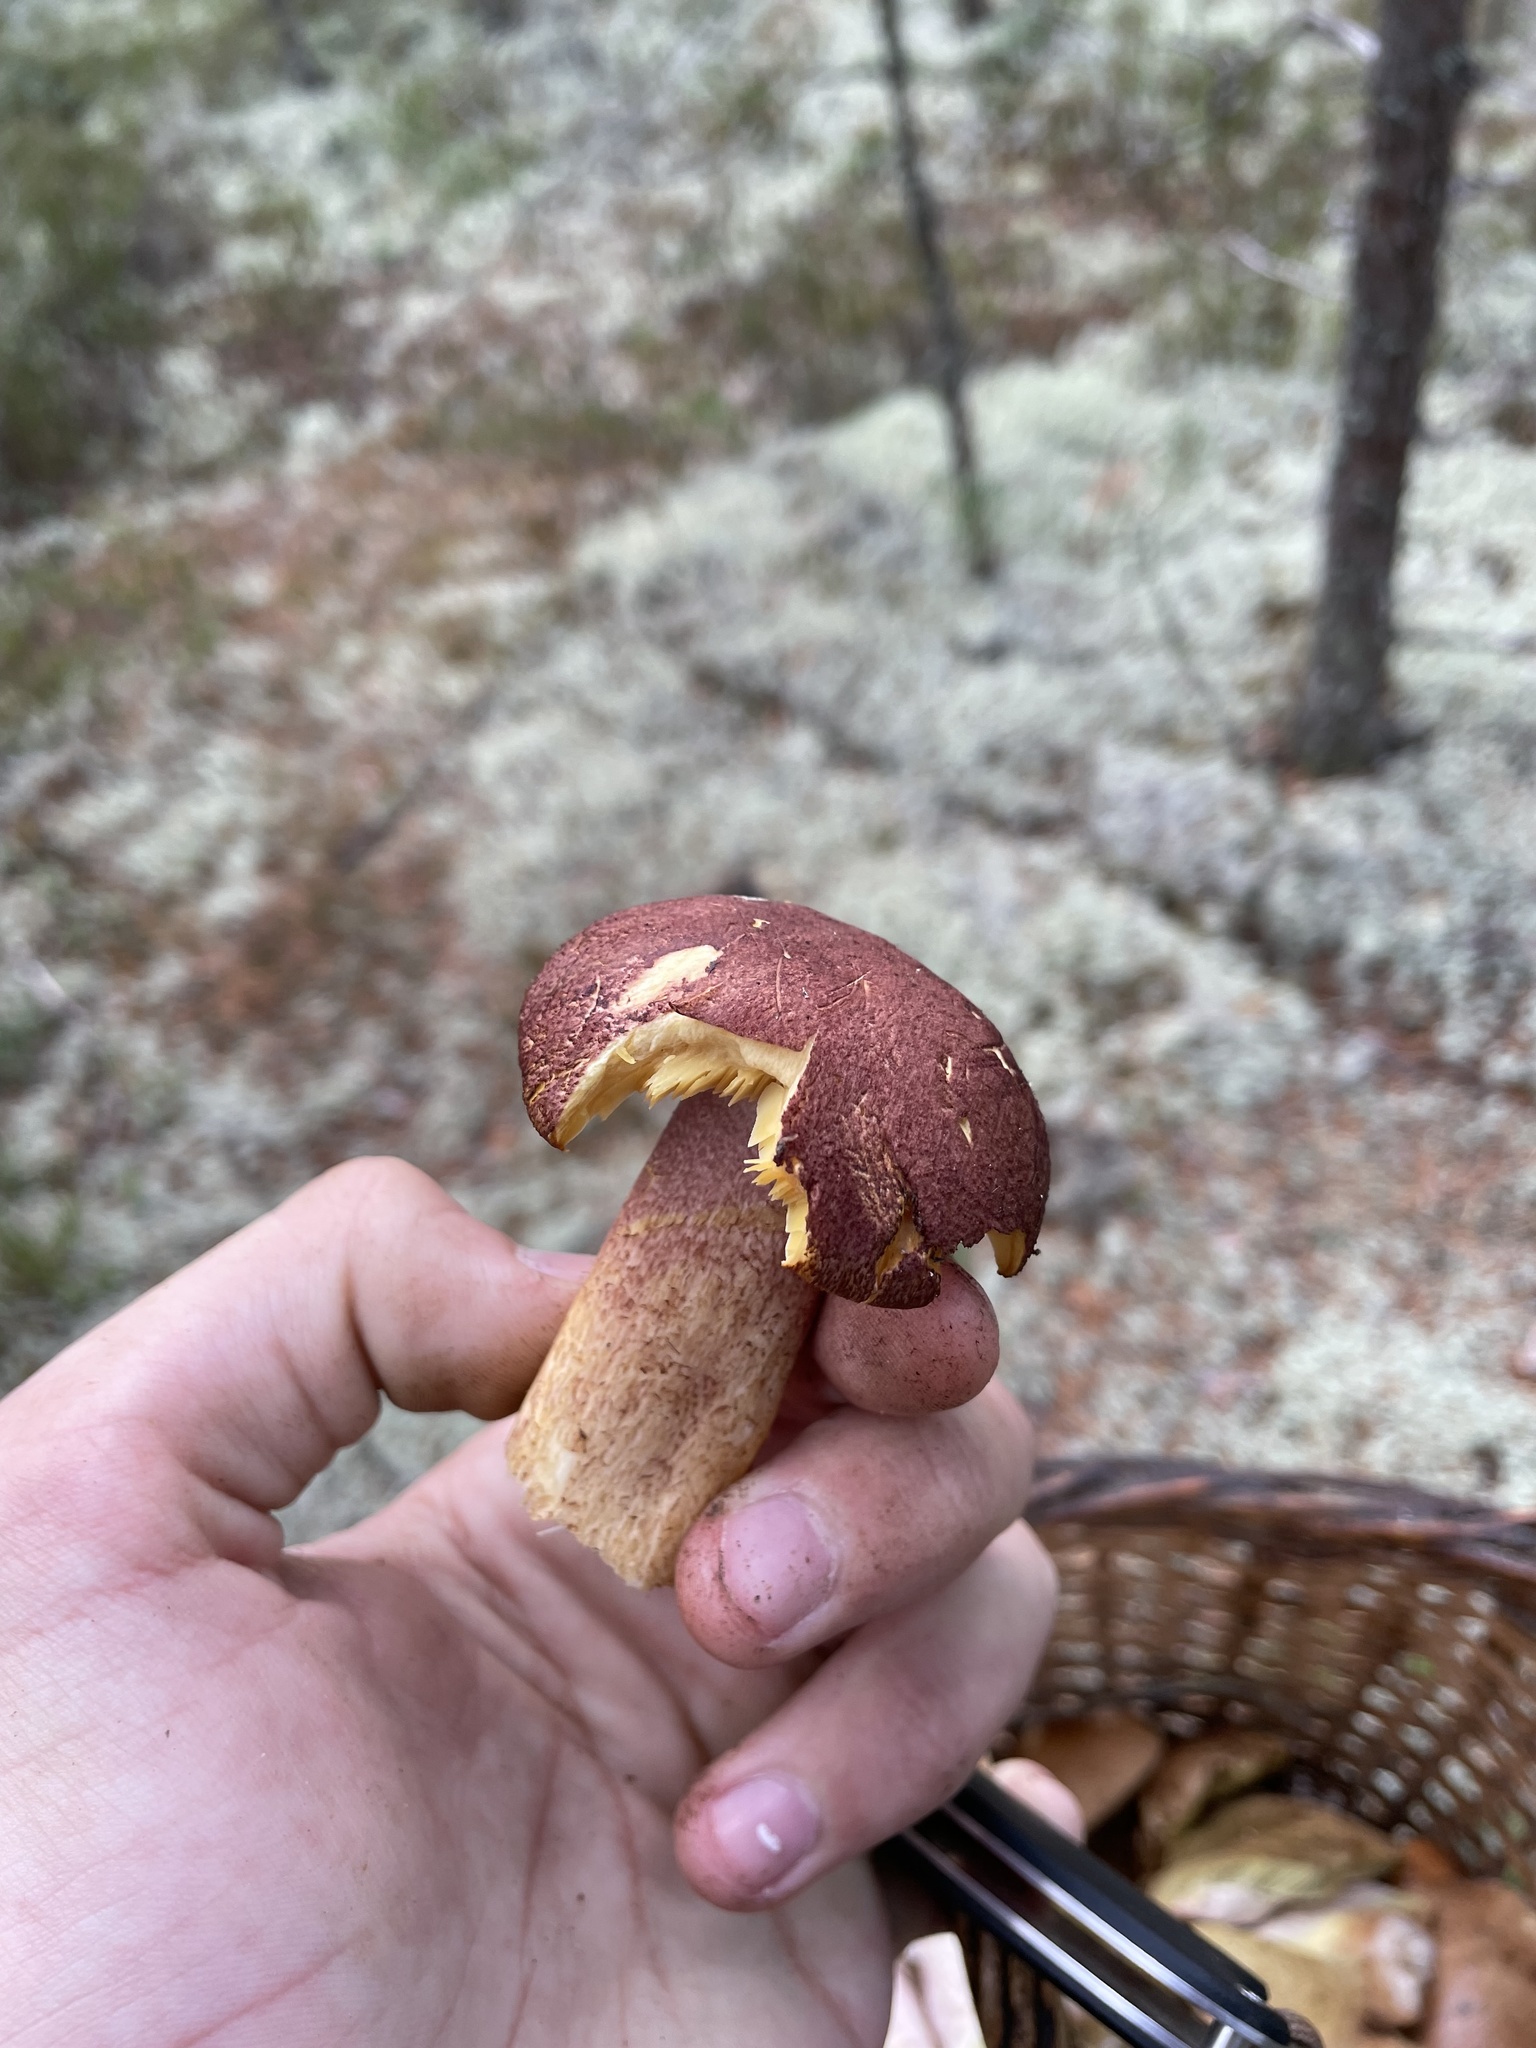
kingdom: Fungi
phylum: Basidiomycota
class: Agaricomycetes
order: Agaricales
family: Tricholomataceae
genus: Tricholomopsis
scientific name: Tricholomopsis rutilans
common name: Plums and custard
